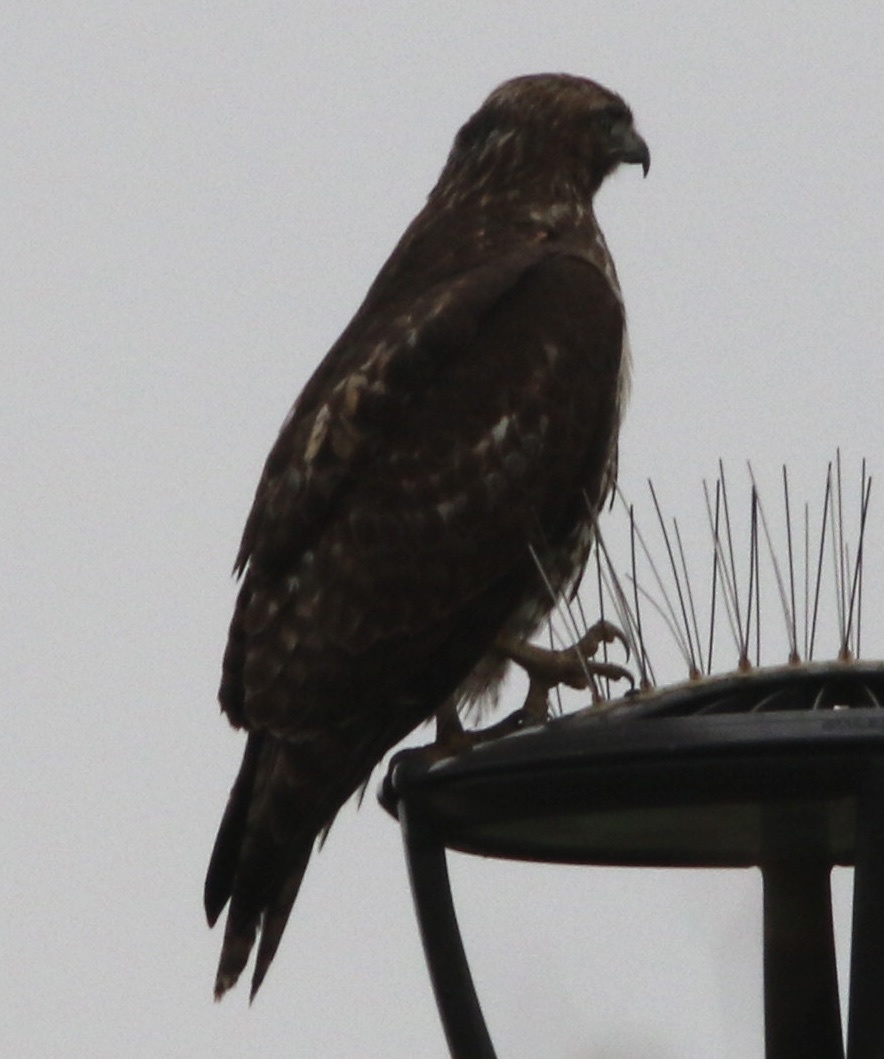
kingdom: Animalia
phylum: Chordata
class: Aves
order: Accipitriformes
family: Accipitridae
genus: Buteo
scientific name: Buteo jamaicensis
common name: Red-tailed hawk
